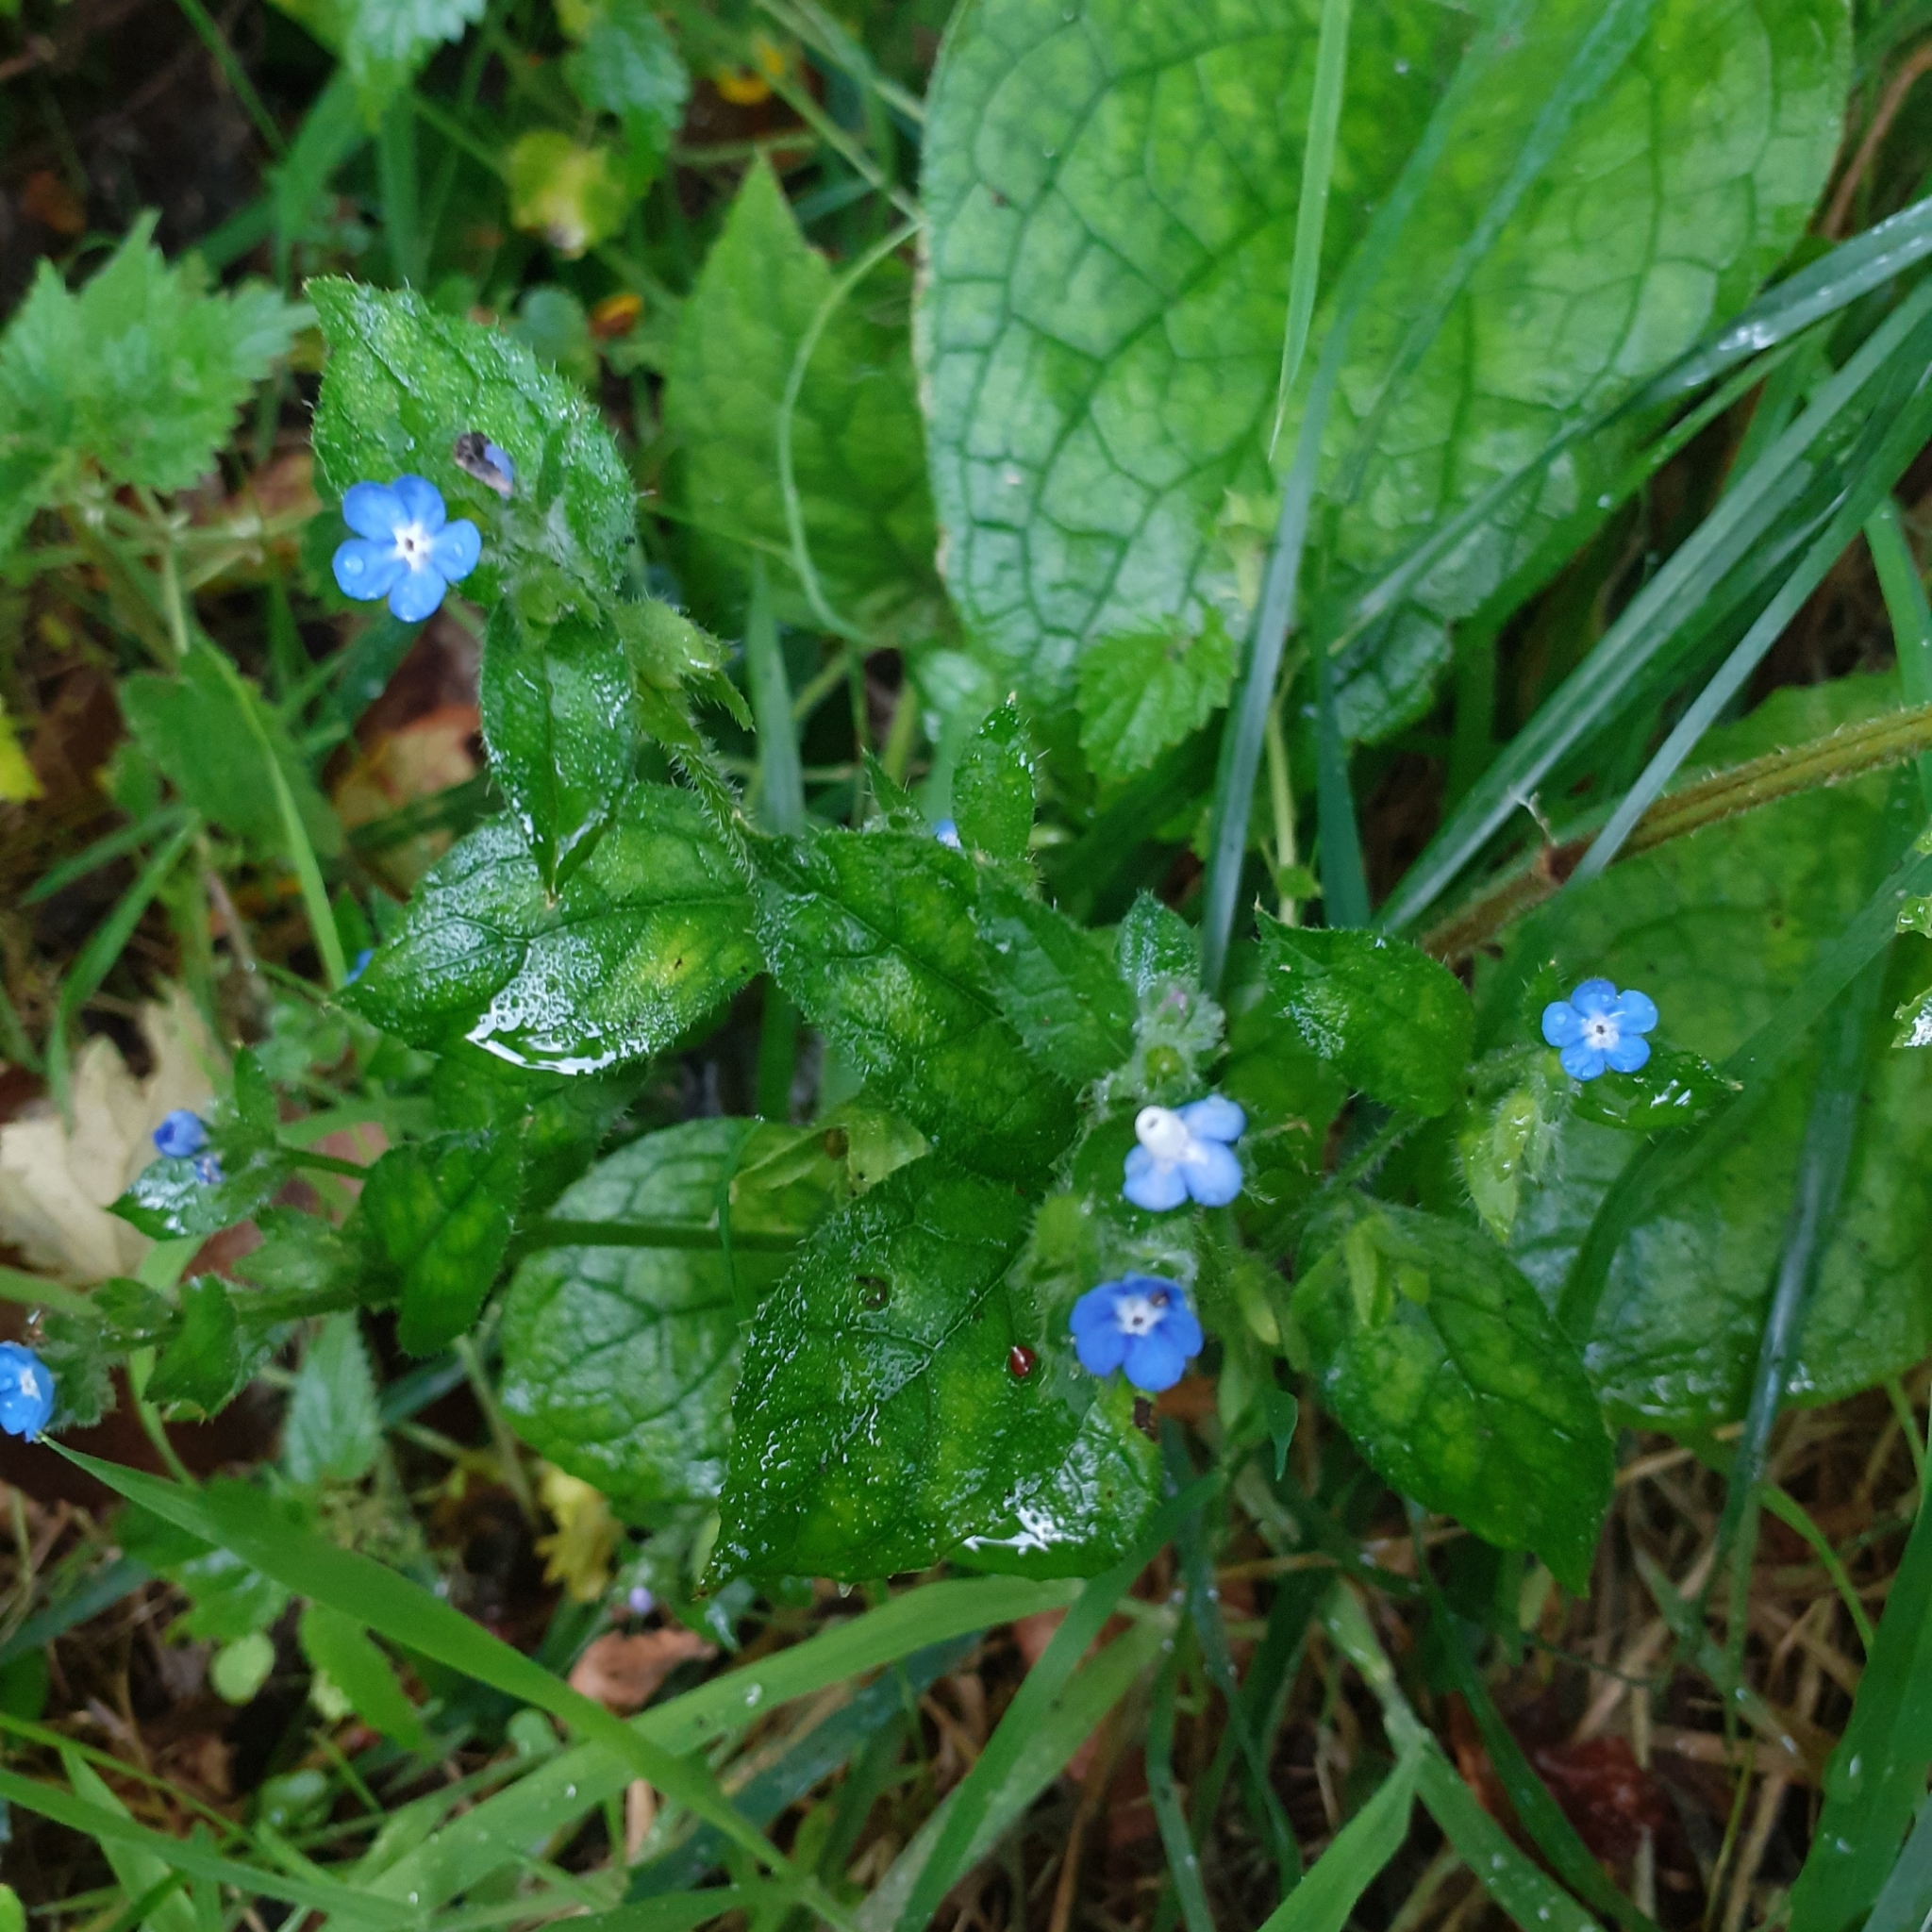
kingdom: Plantae
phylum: Tracheophyta
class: Magnoliopsida
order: Boraginales
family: Boraginaceae
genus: Pentaglottis
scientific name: Pentaglottis sempervirens
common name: Green alkanet
